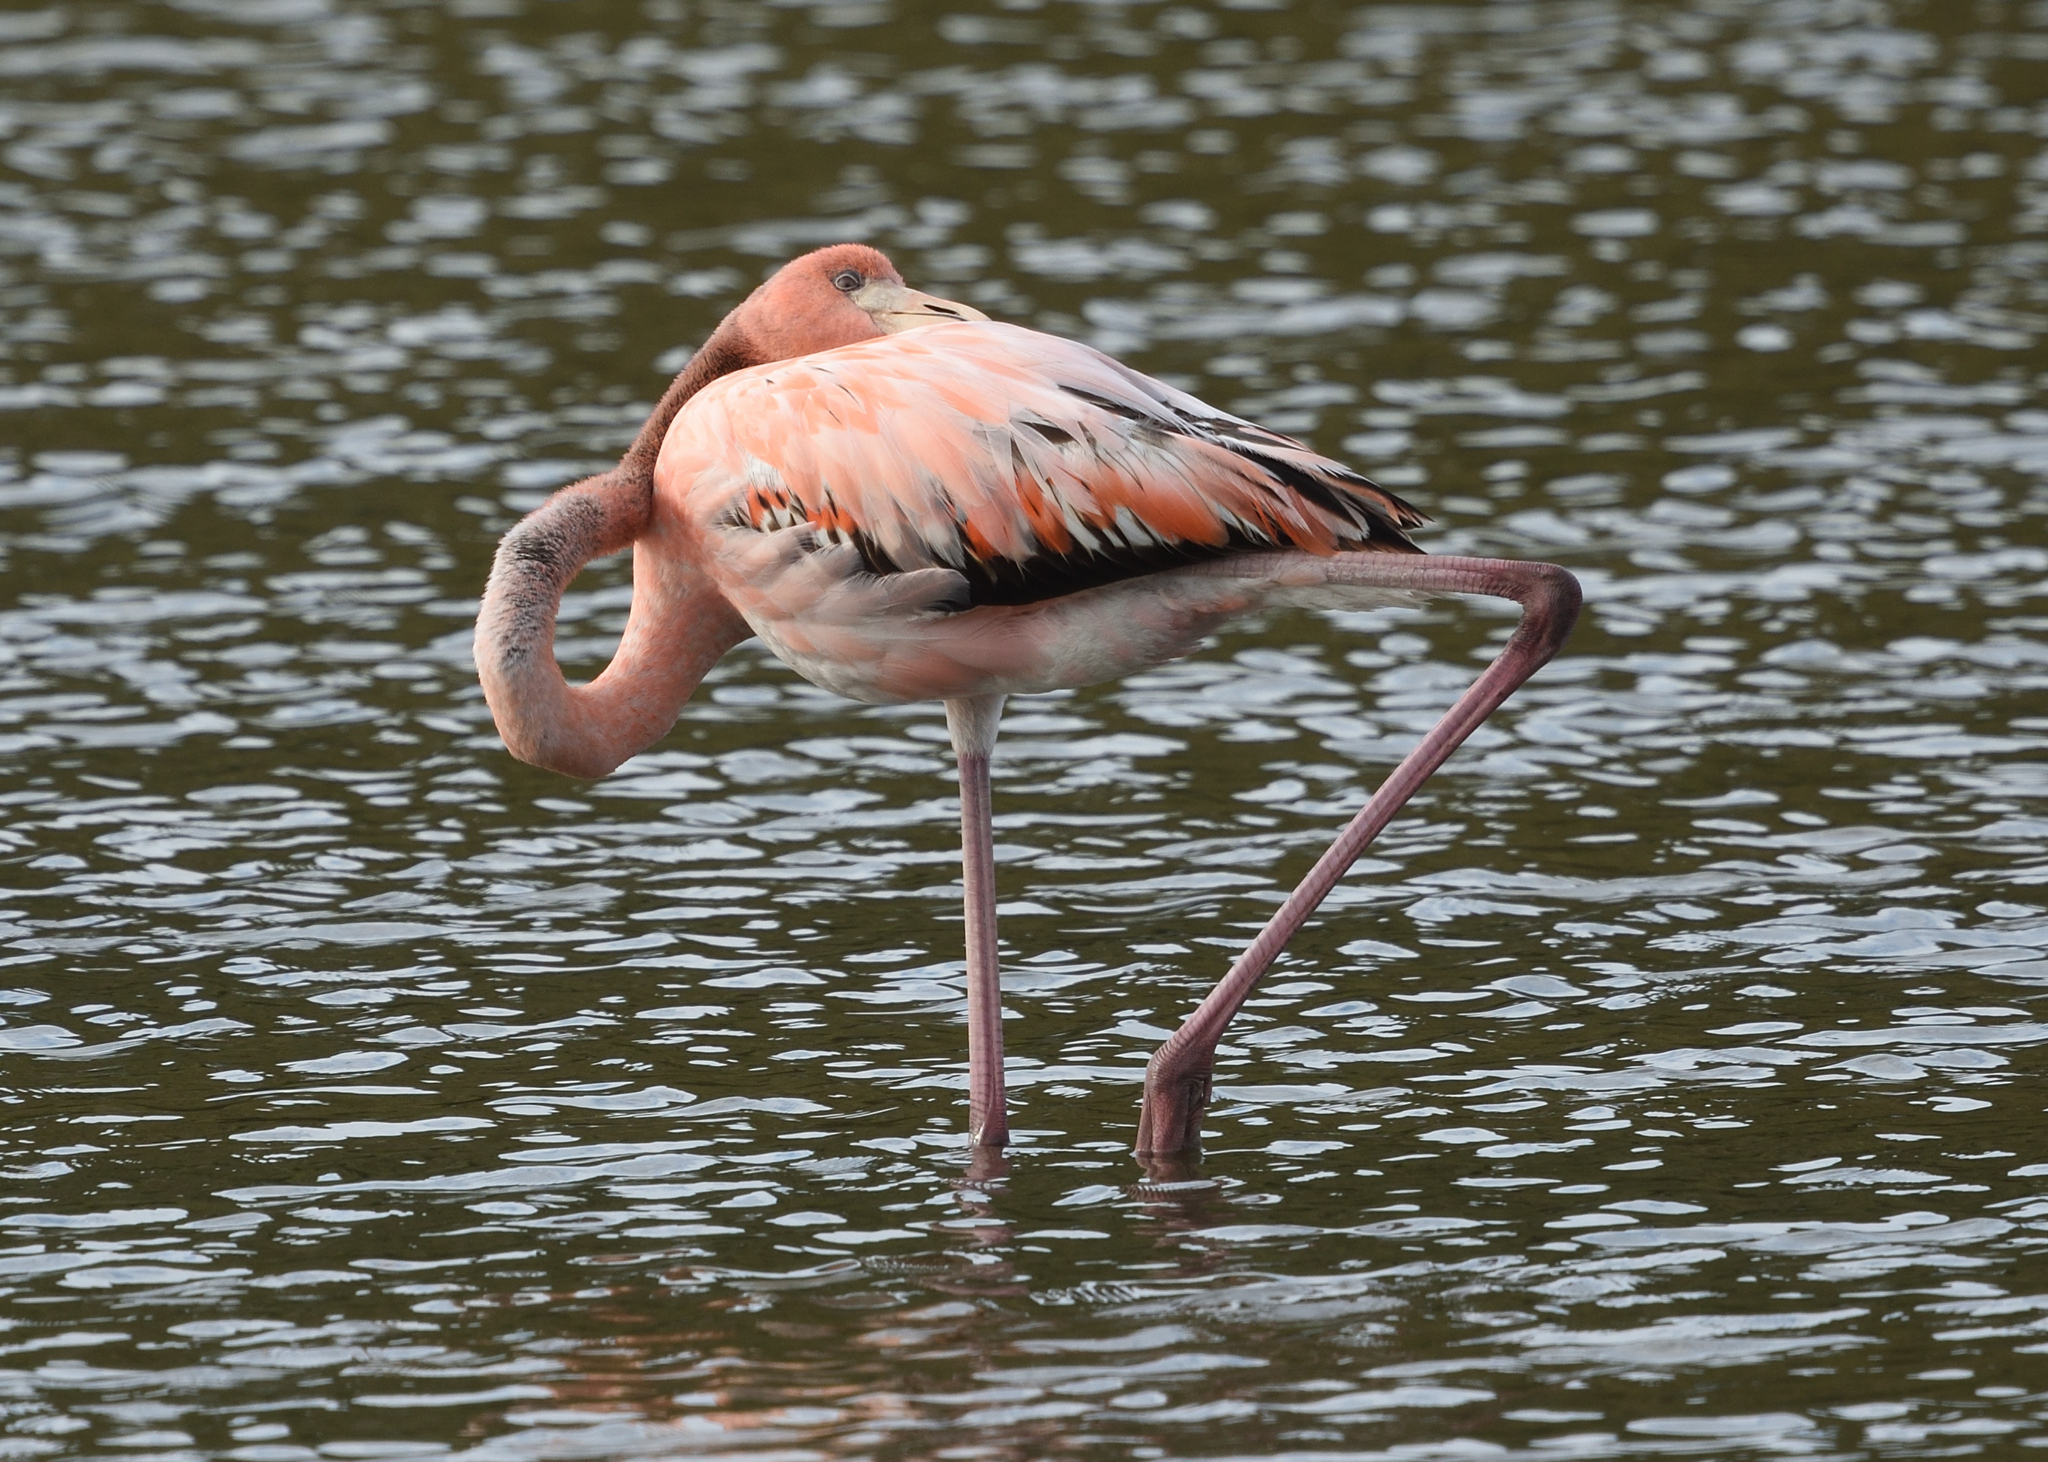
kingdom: Animalia
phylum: Chordata
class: Aves
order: Phoenicopteriformes
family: Phoenicopteridae
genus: Phoenicopterus
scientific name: Phoenicopterus ruber
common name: American flamingo
